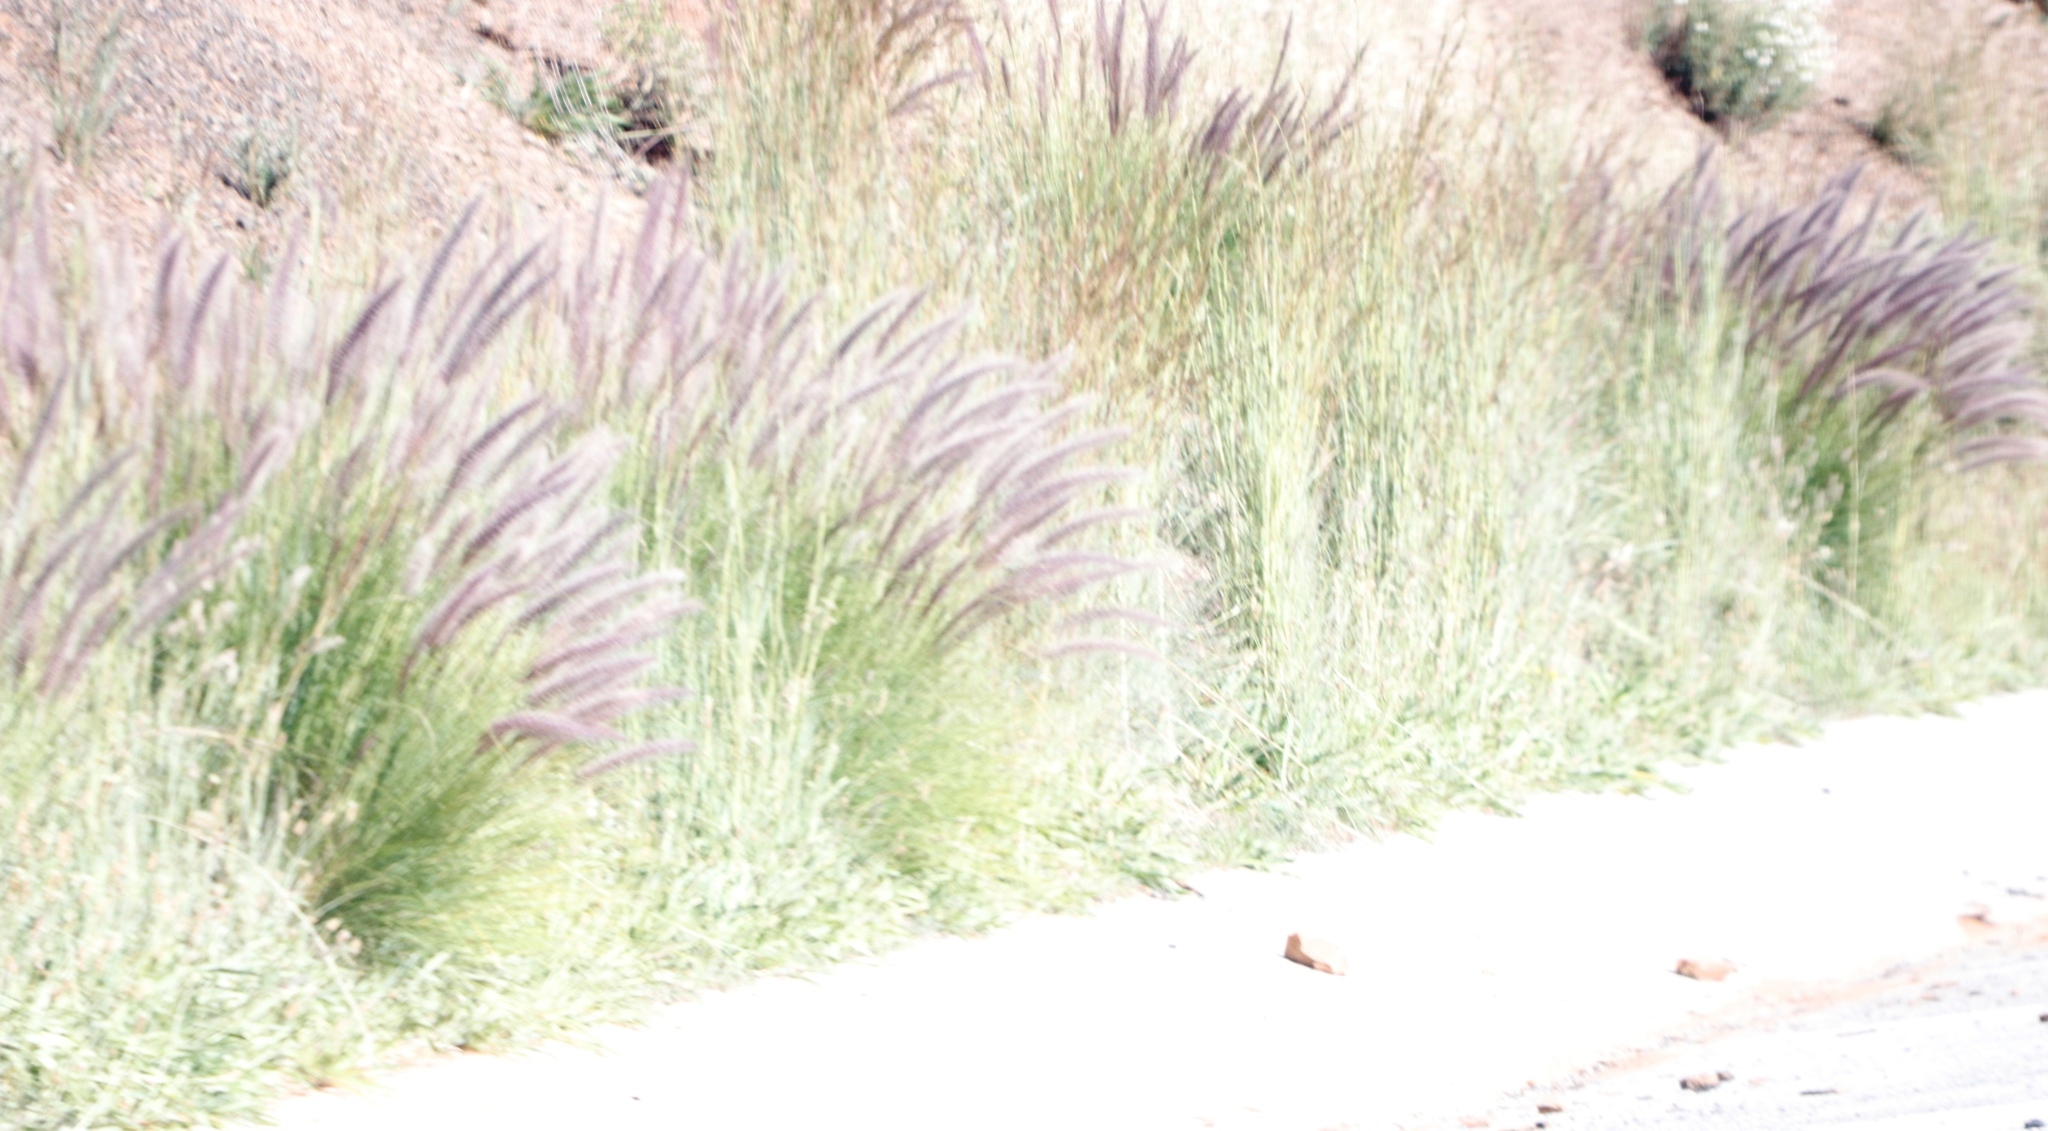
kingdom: Plantae
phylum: Tracheophyta
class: Liliopsida
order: Poales
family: Poaceae
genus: Cenchrus
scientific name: Cenchrus setaceus
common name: Crimson fountaingrass
